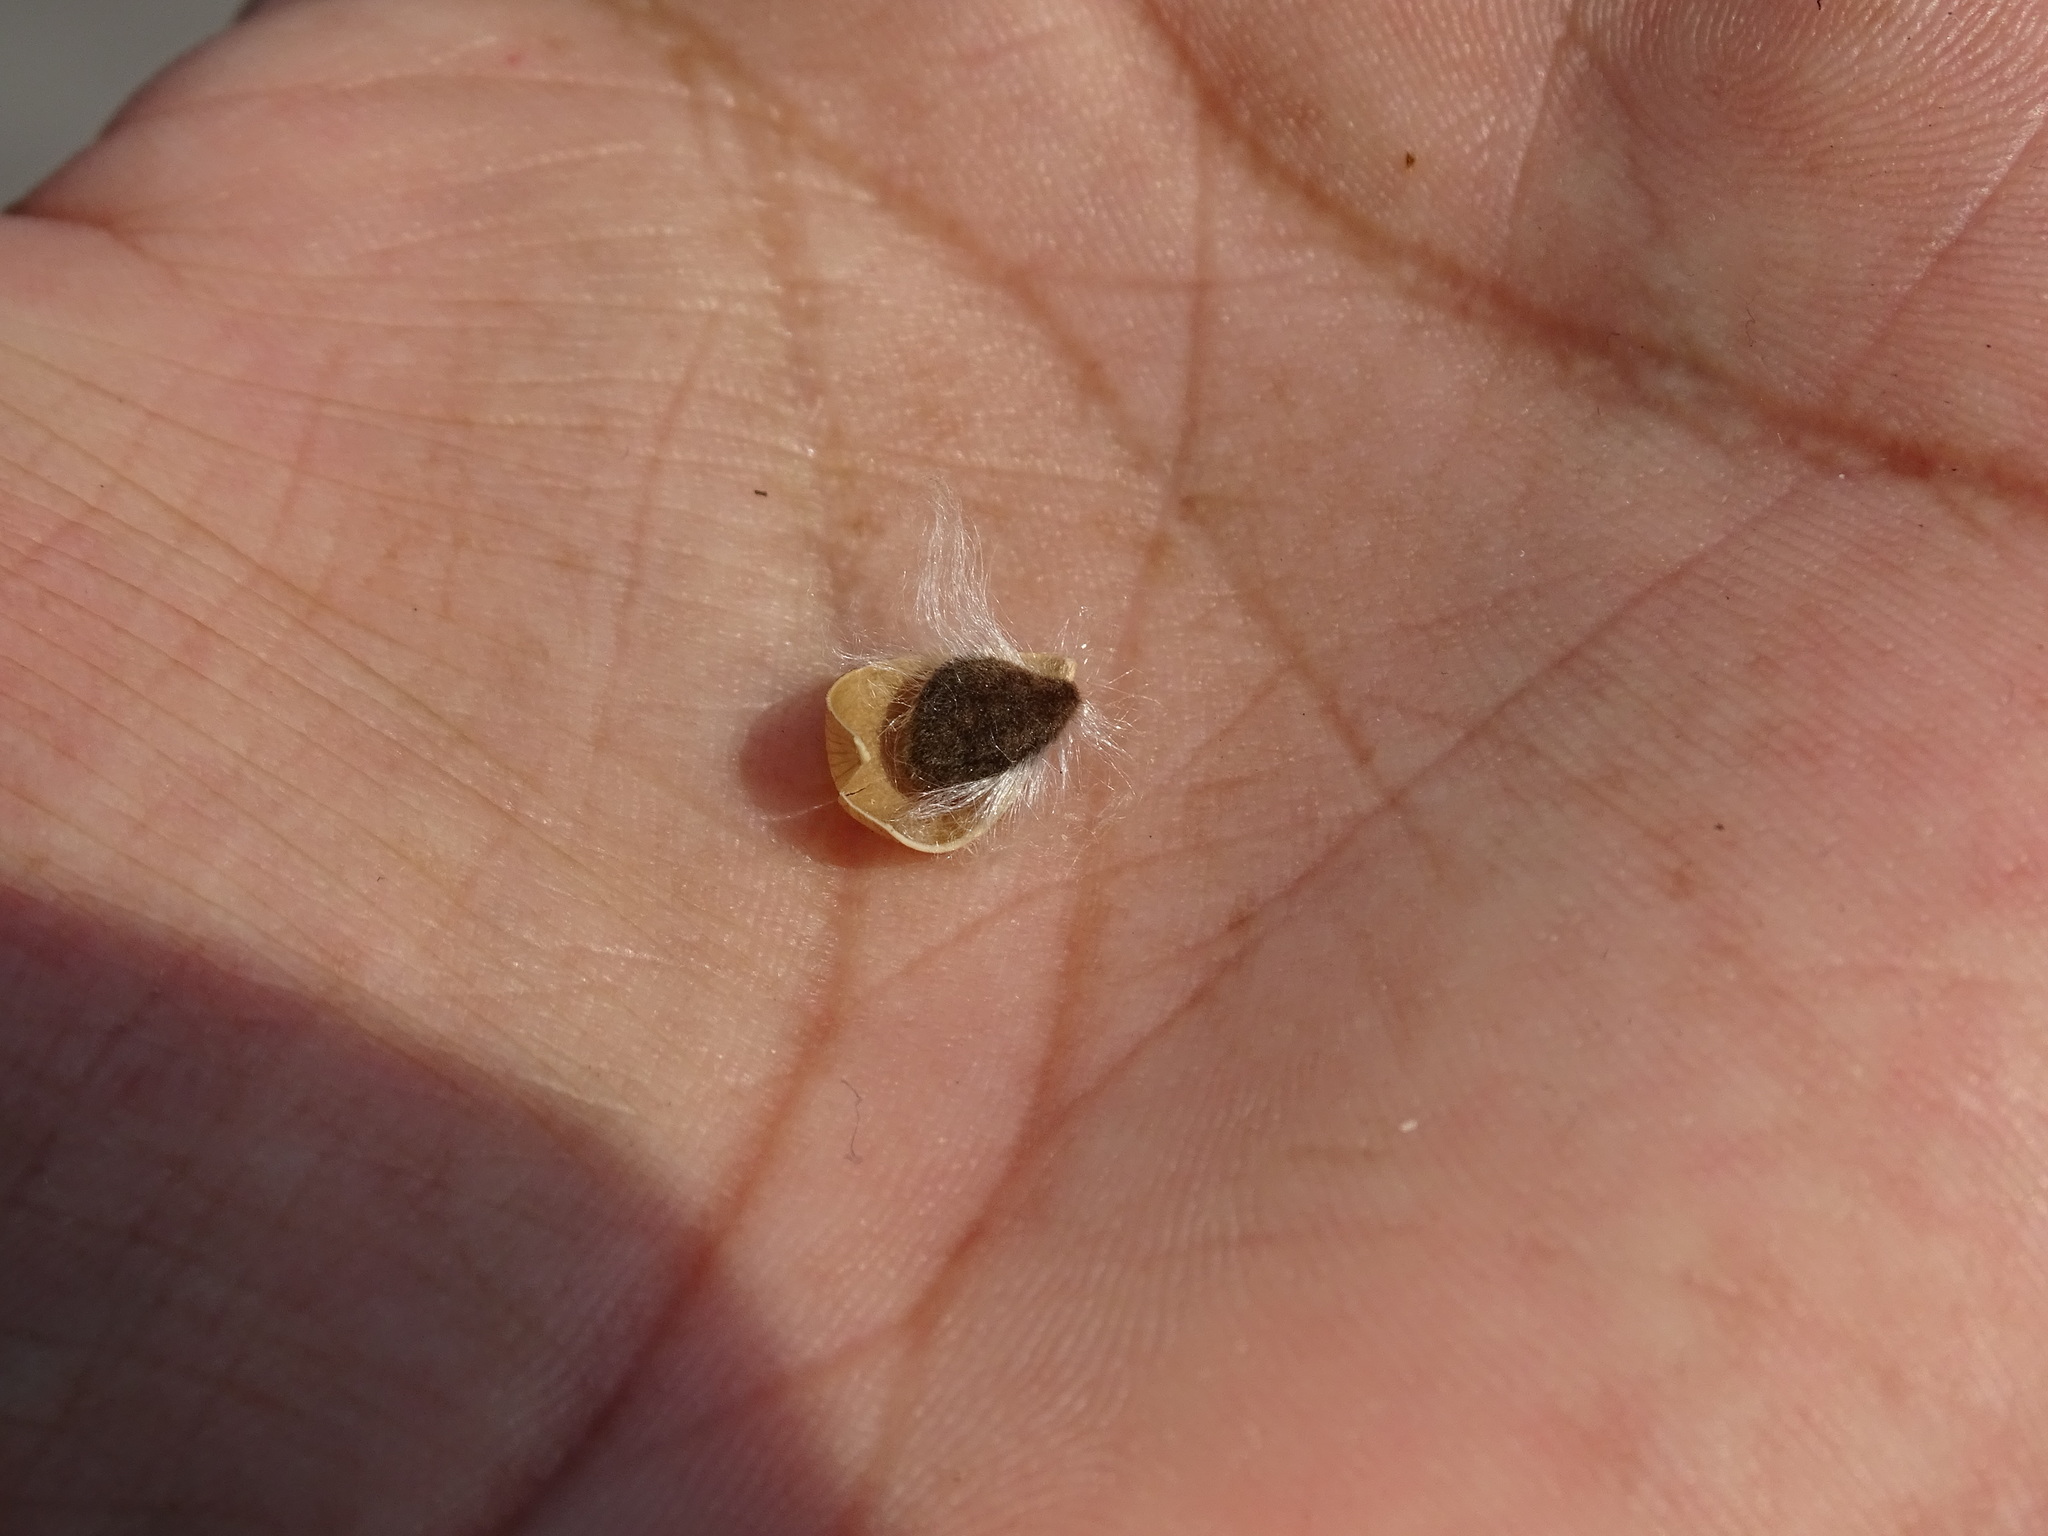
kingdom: Plantae
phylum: Tracheophyta
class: Magnoliopsida
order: Solanales
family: Convolvulaceae
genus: Ipomoea
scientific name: Ipomoea anisomeres
